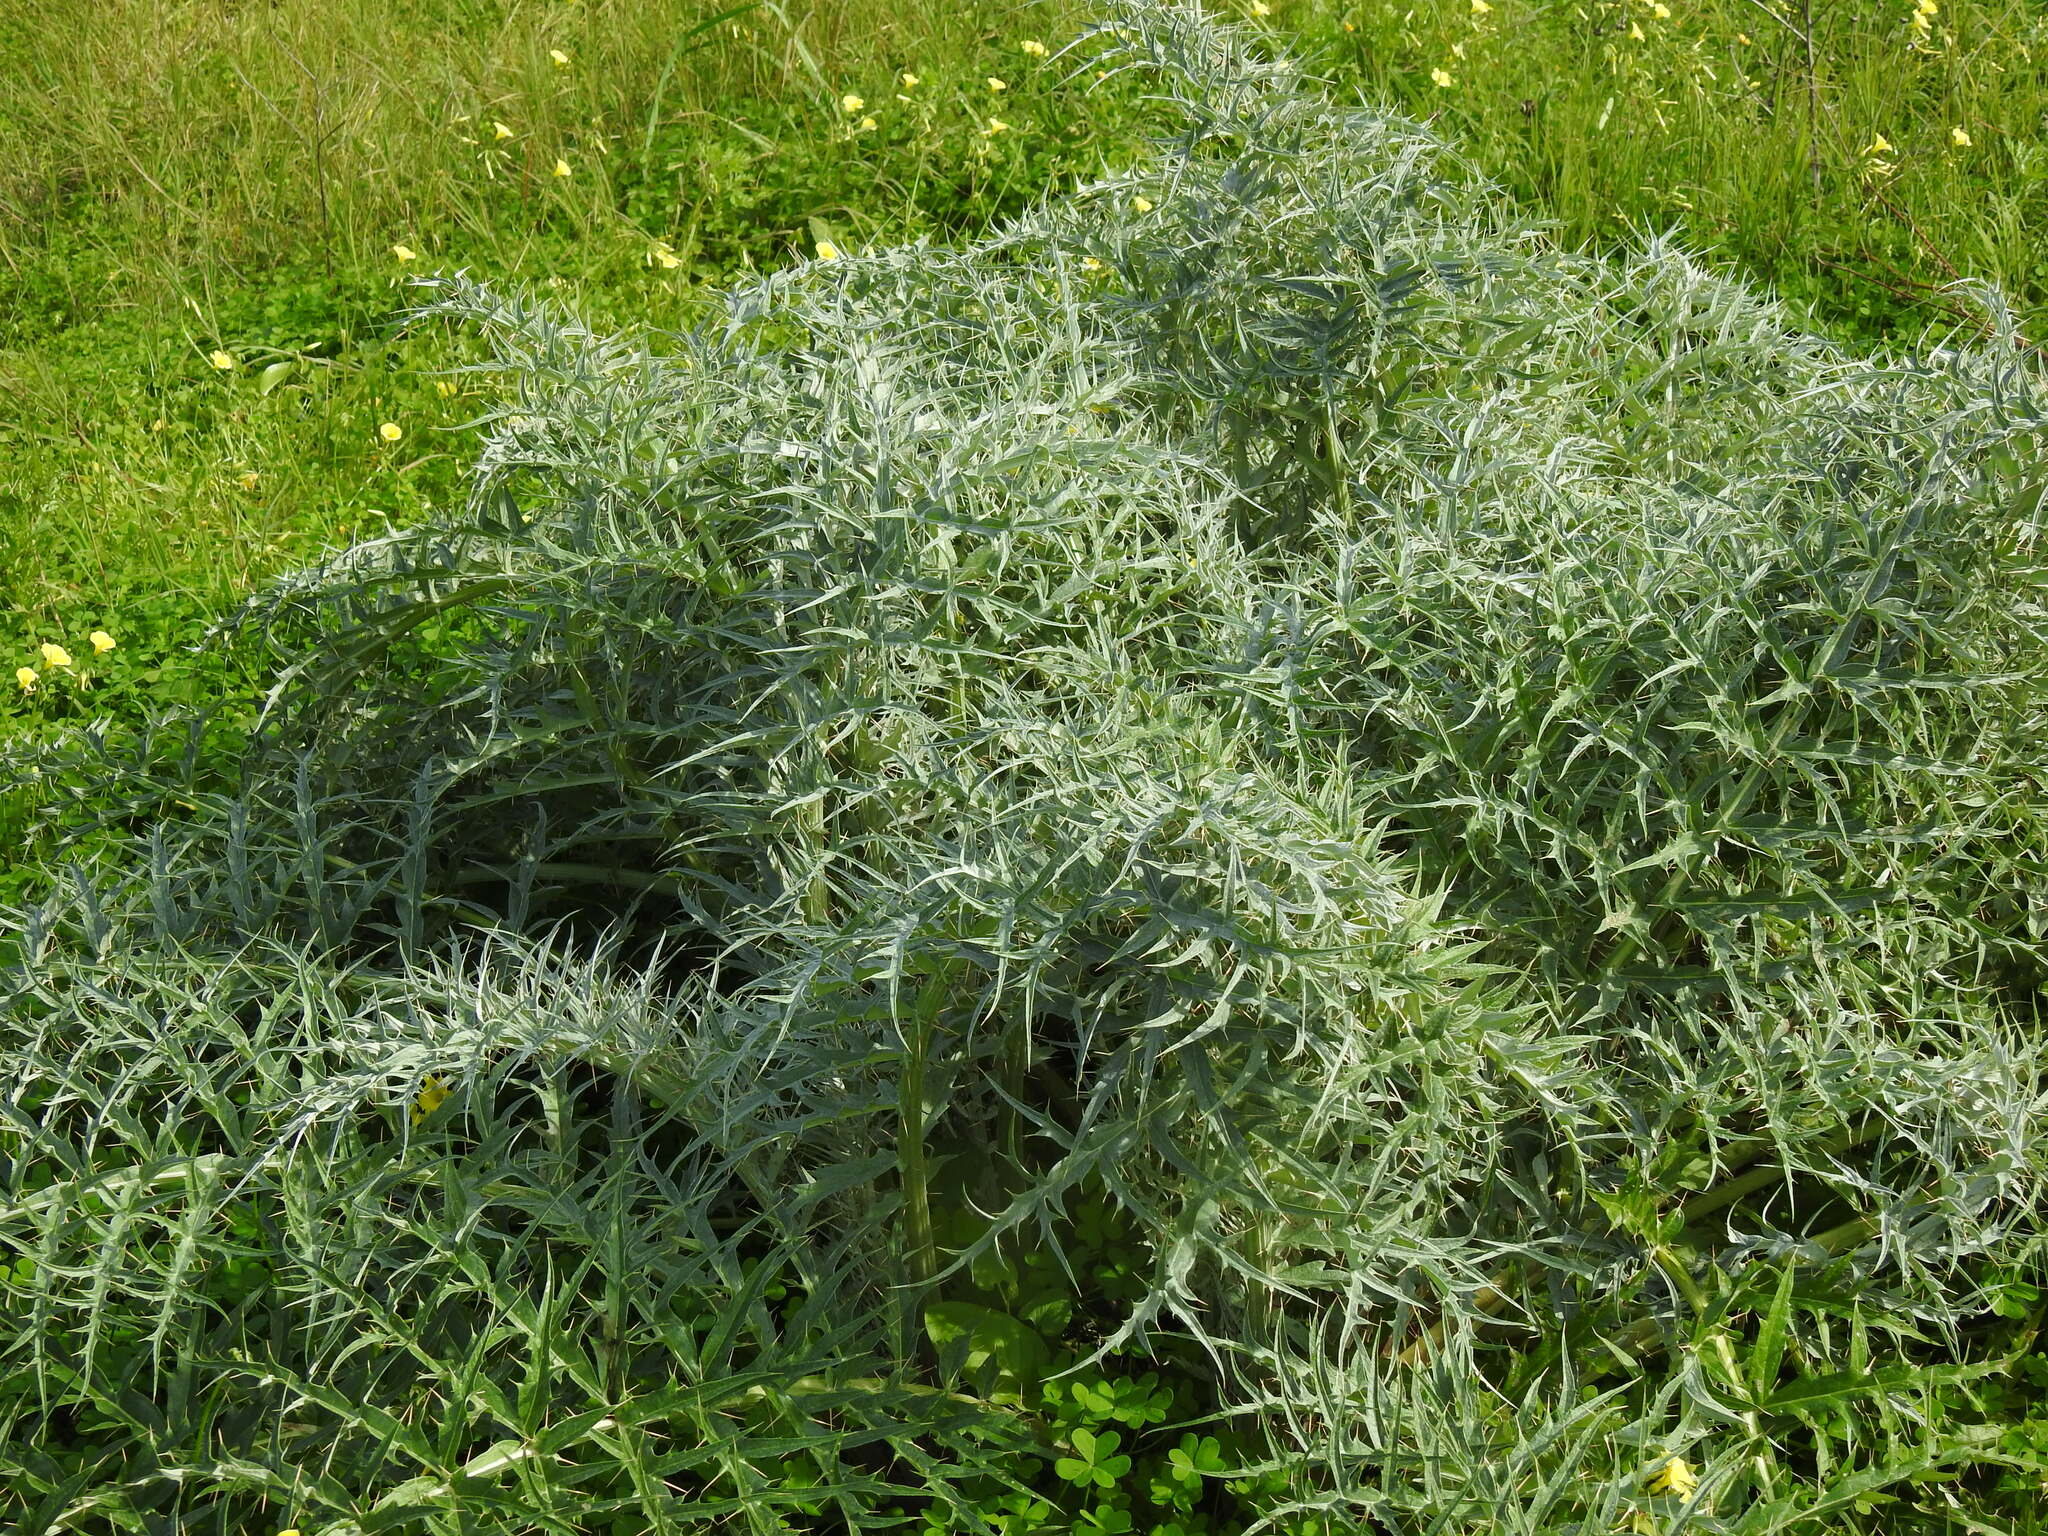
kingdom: Plantae
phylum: Tracheophyta
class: Magnoliopsida
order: Asterales
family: Asteraceae
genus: Cynara
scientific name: Cynara cardunculus
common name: Globe artichoke
